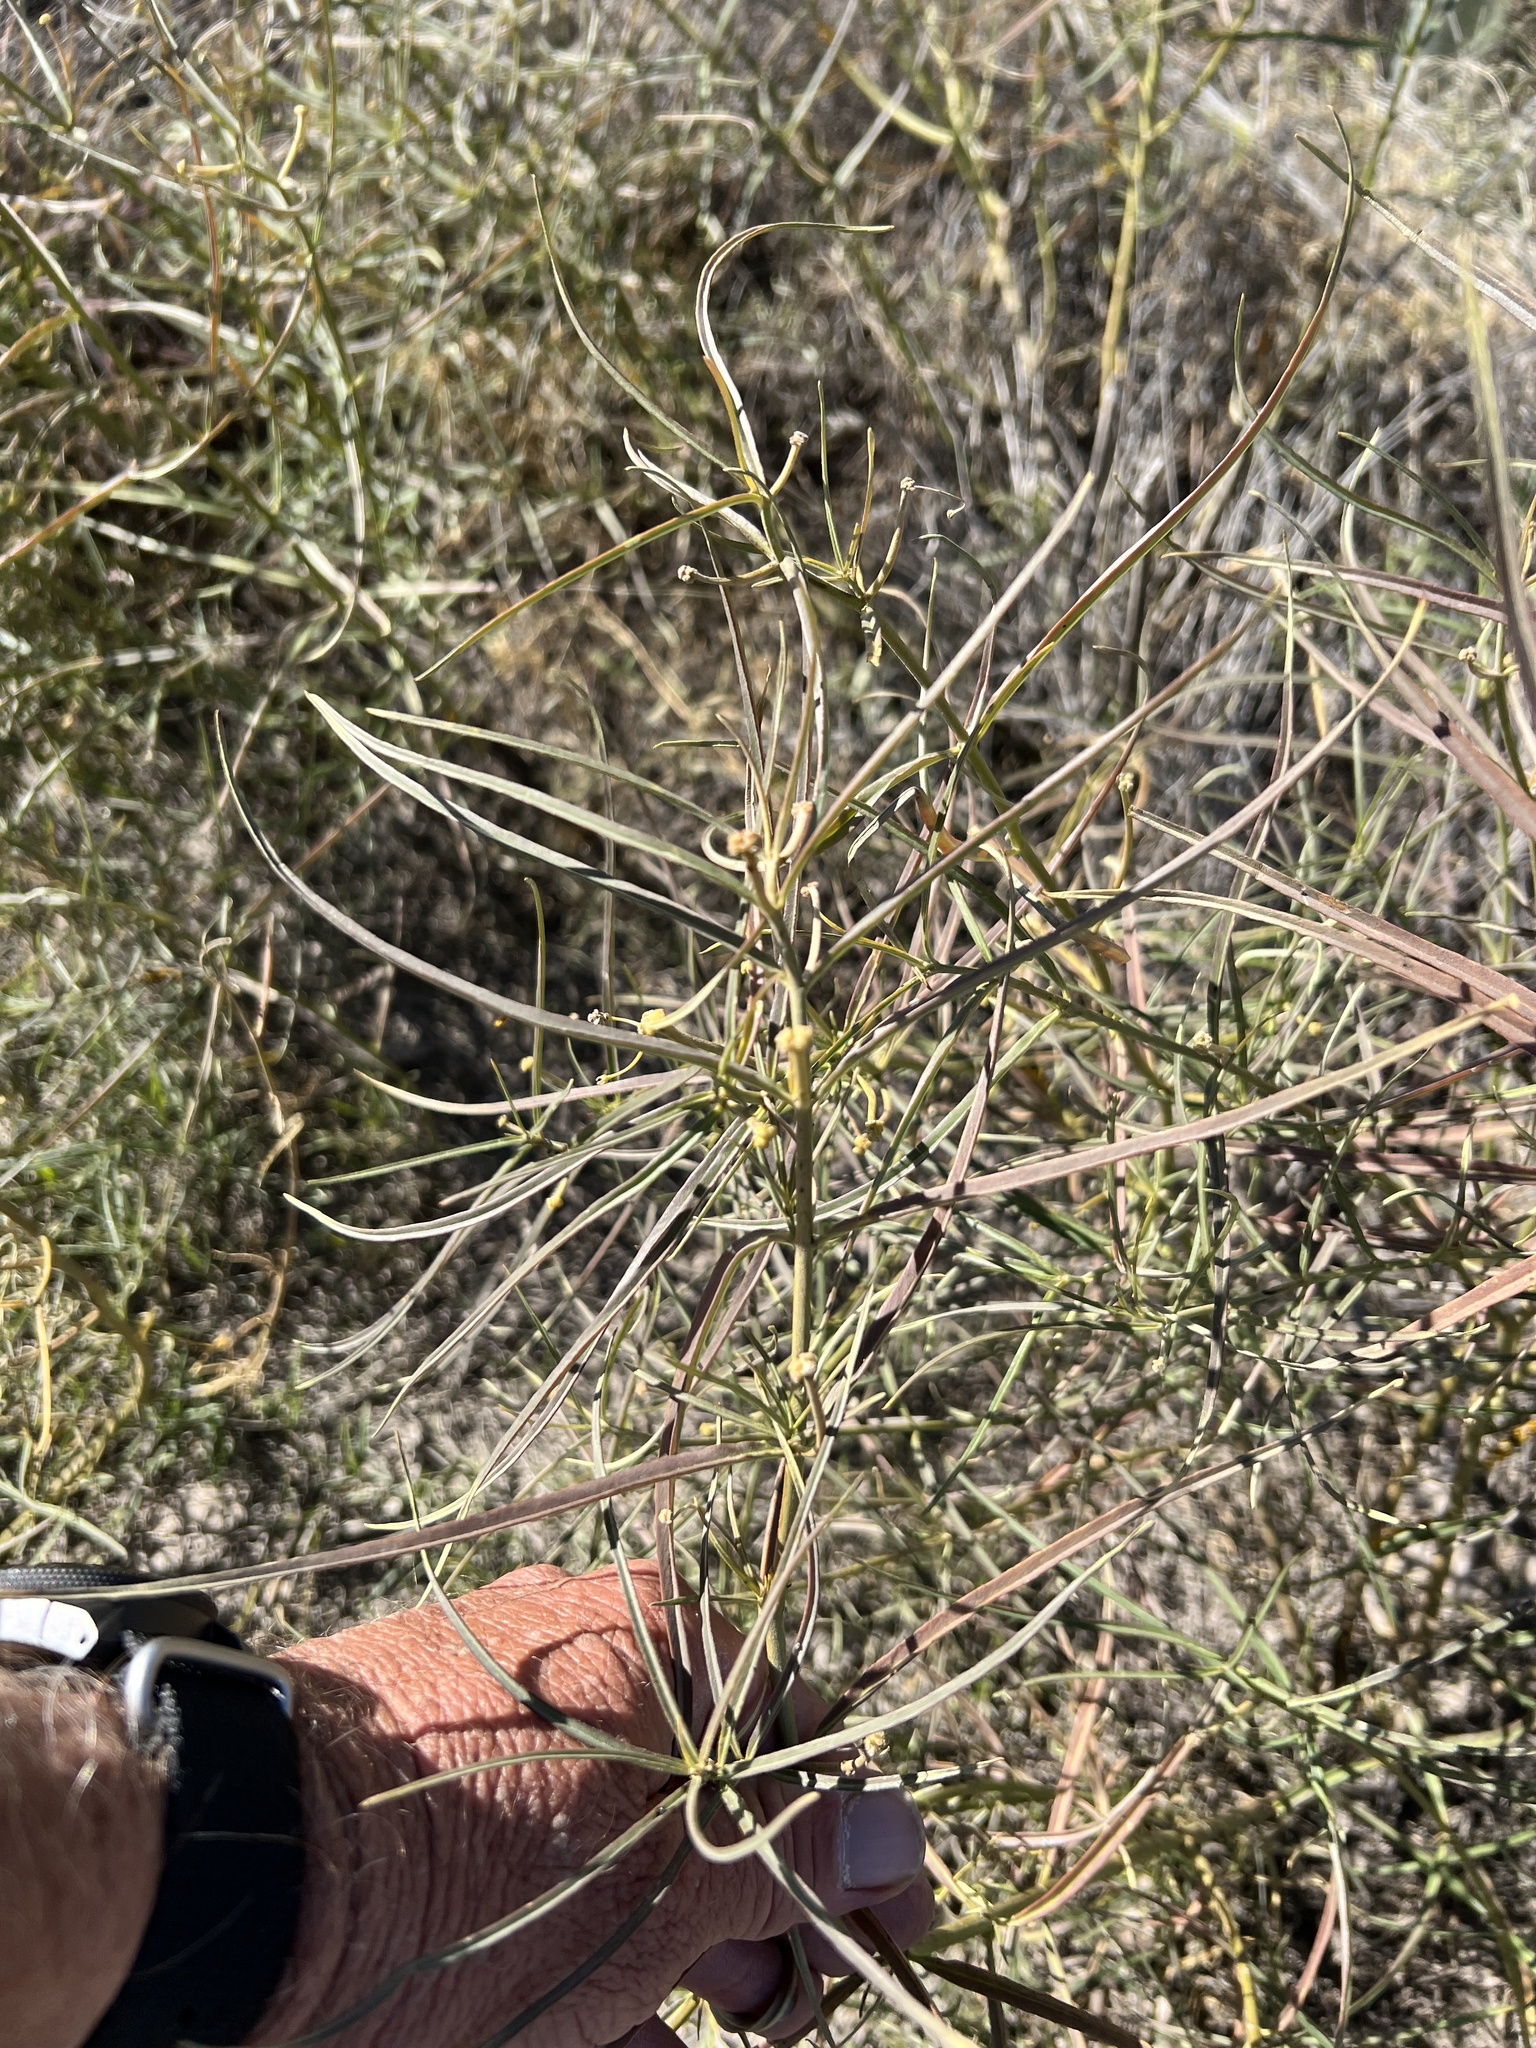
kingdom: Plantae
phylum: Tracheophyta
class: Magnoliopsida
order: Gentianales
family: Apocynaceae
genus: Asclepias
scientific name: Asclepias subverticillata
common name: Horsetail milkweed
